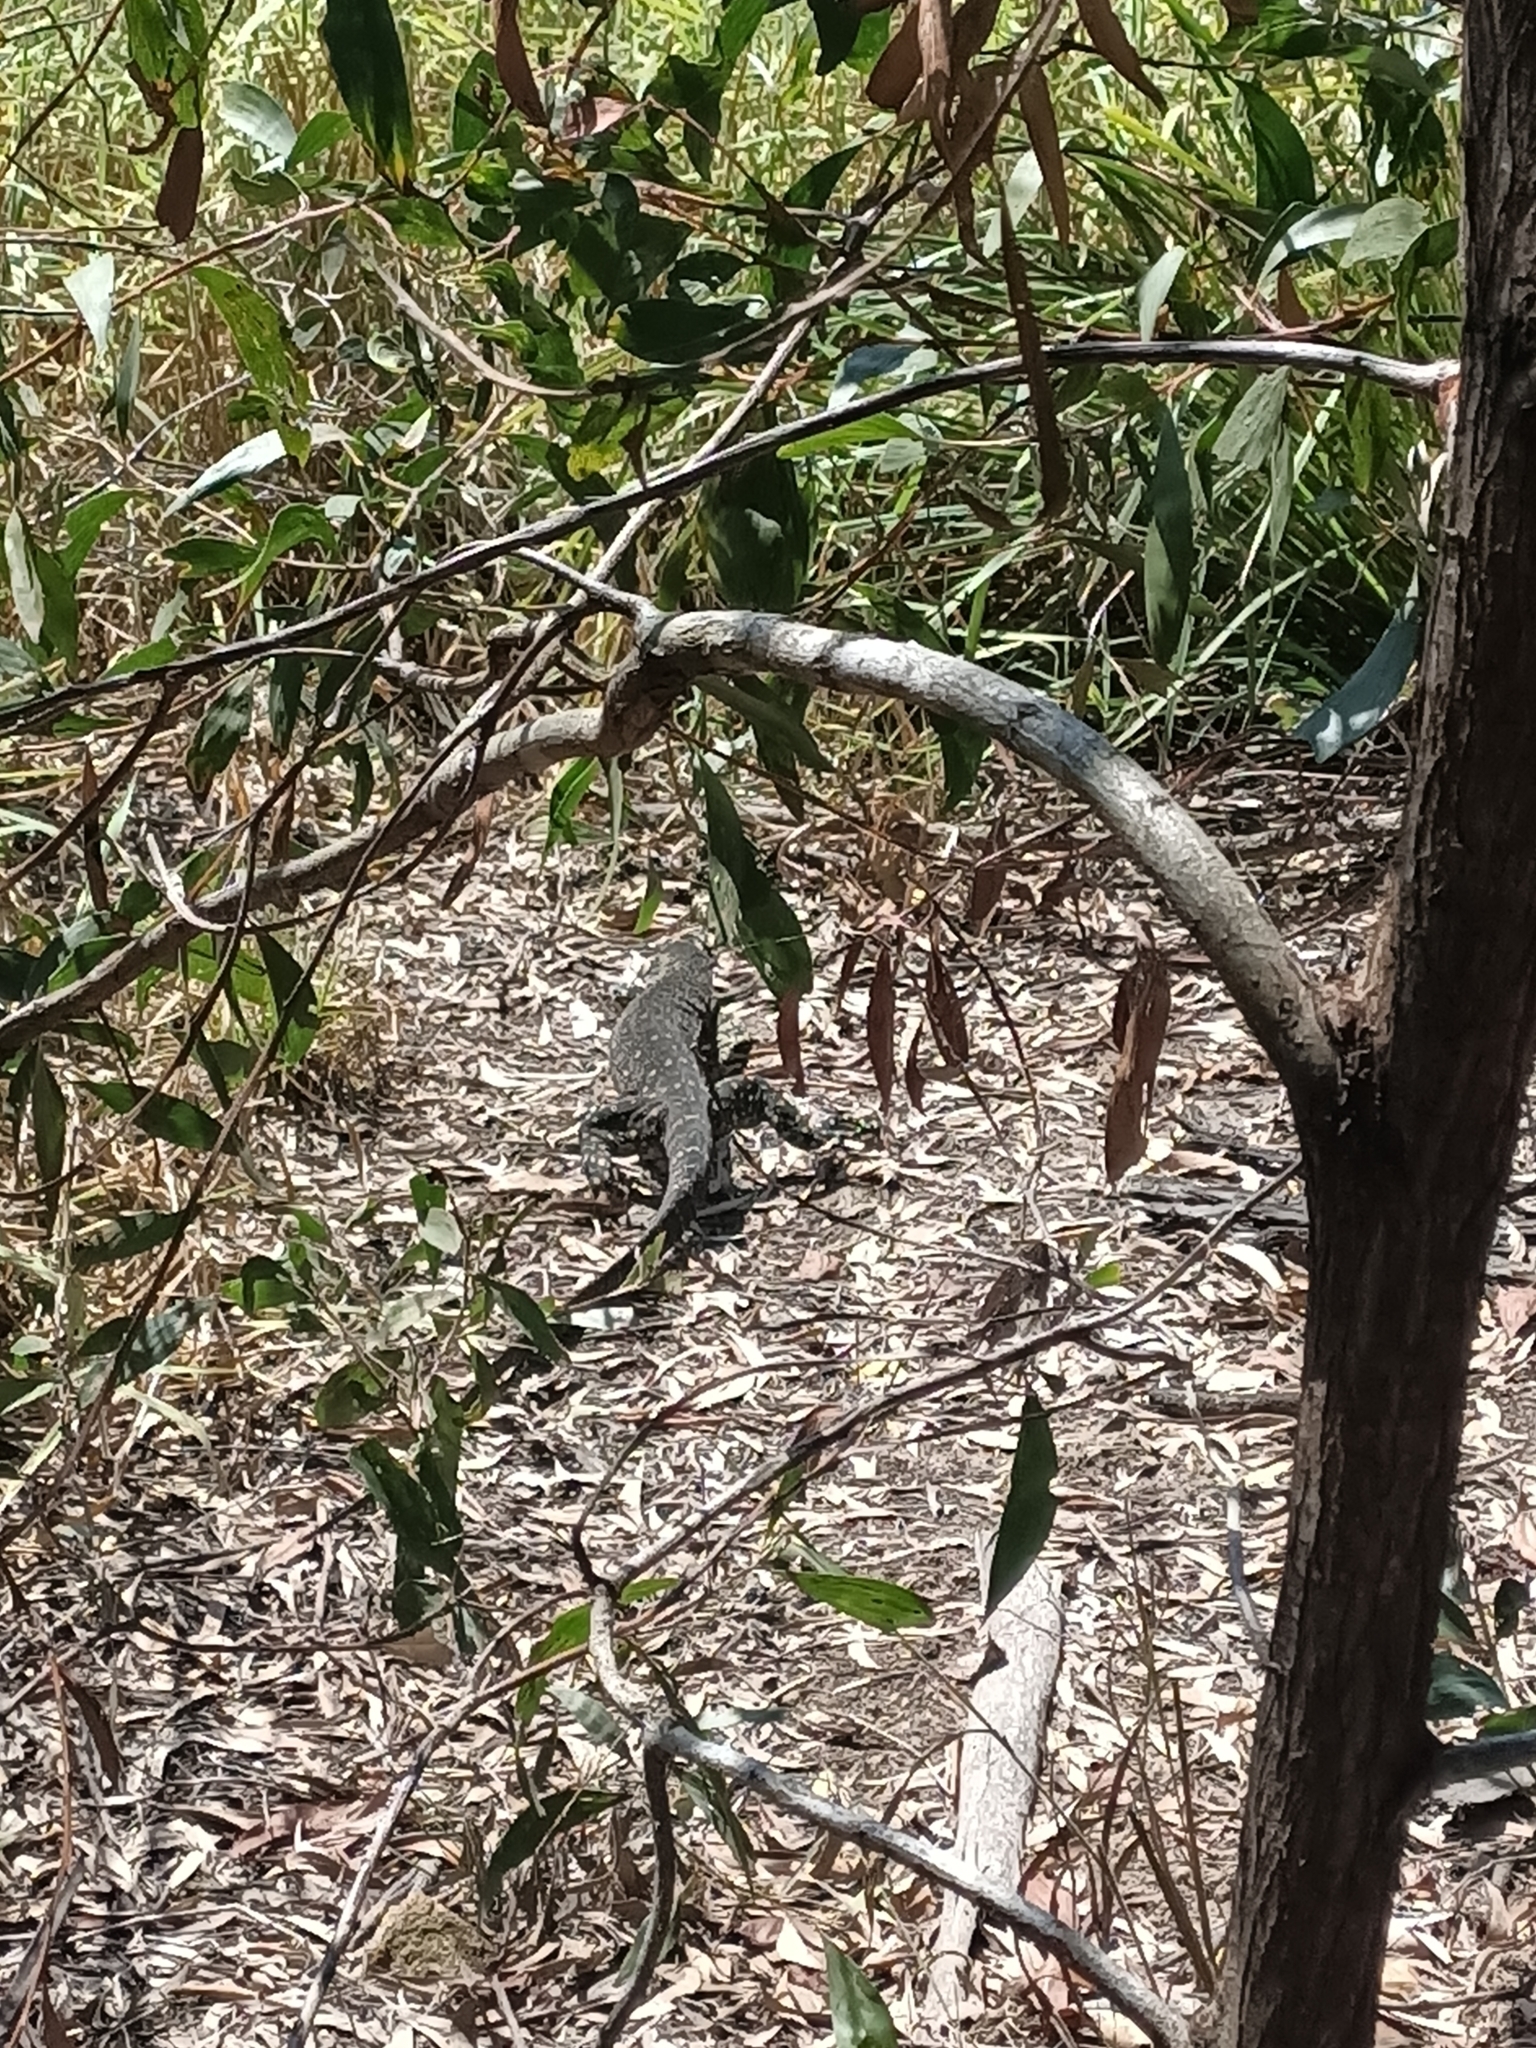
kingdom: Animalia
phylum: Chordata
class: Squamata
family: Varanidae
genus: Varanus
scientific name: Varanus varius
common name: Lace monitor
